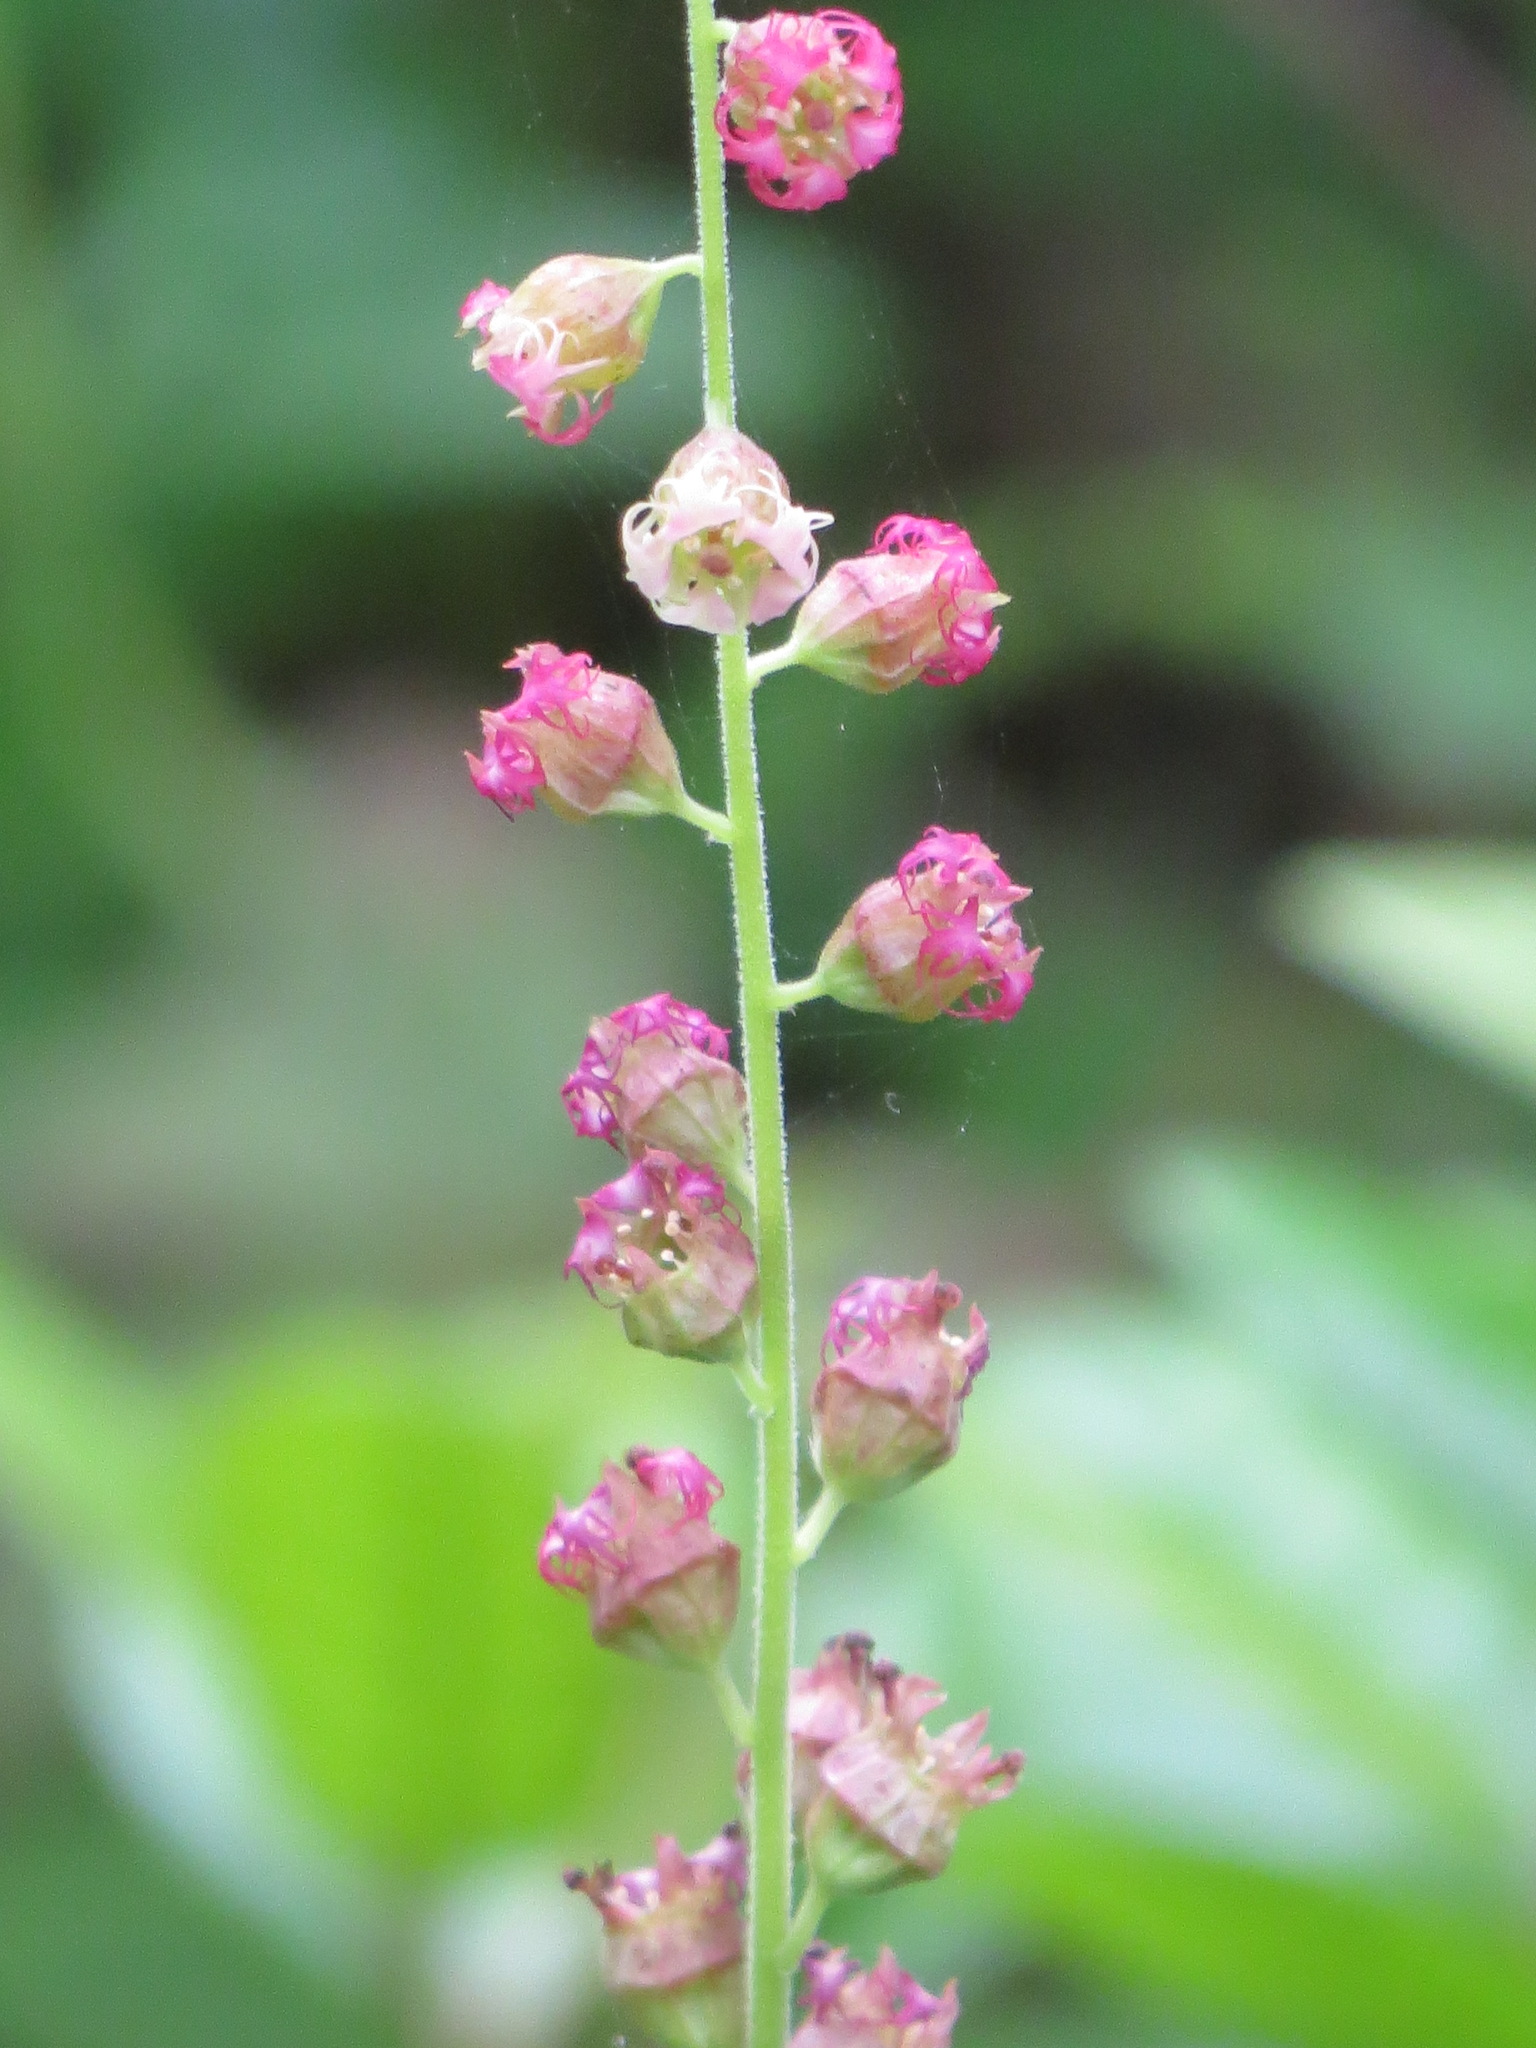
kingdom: Plantae
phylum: Tracheophyta
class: Magnoliopsida
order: Saxifragales
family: Saxifragaceae
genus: Tellima
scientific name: Tellima grandiflora
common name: Fringecups
